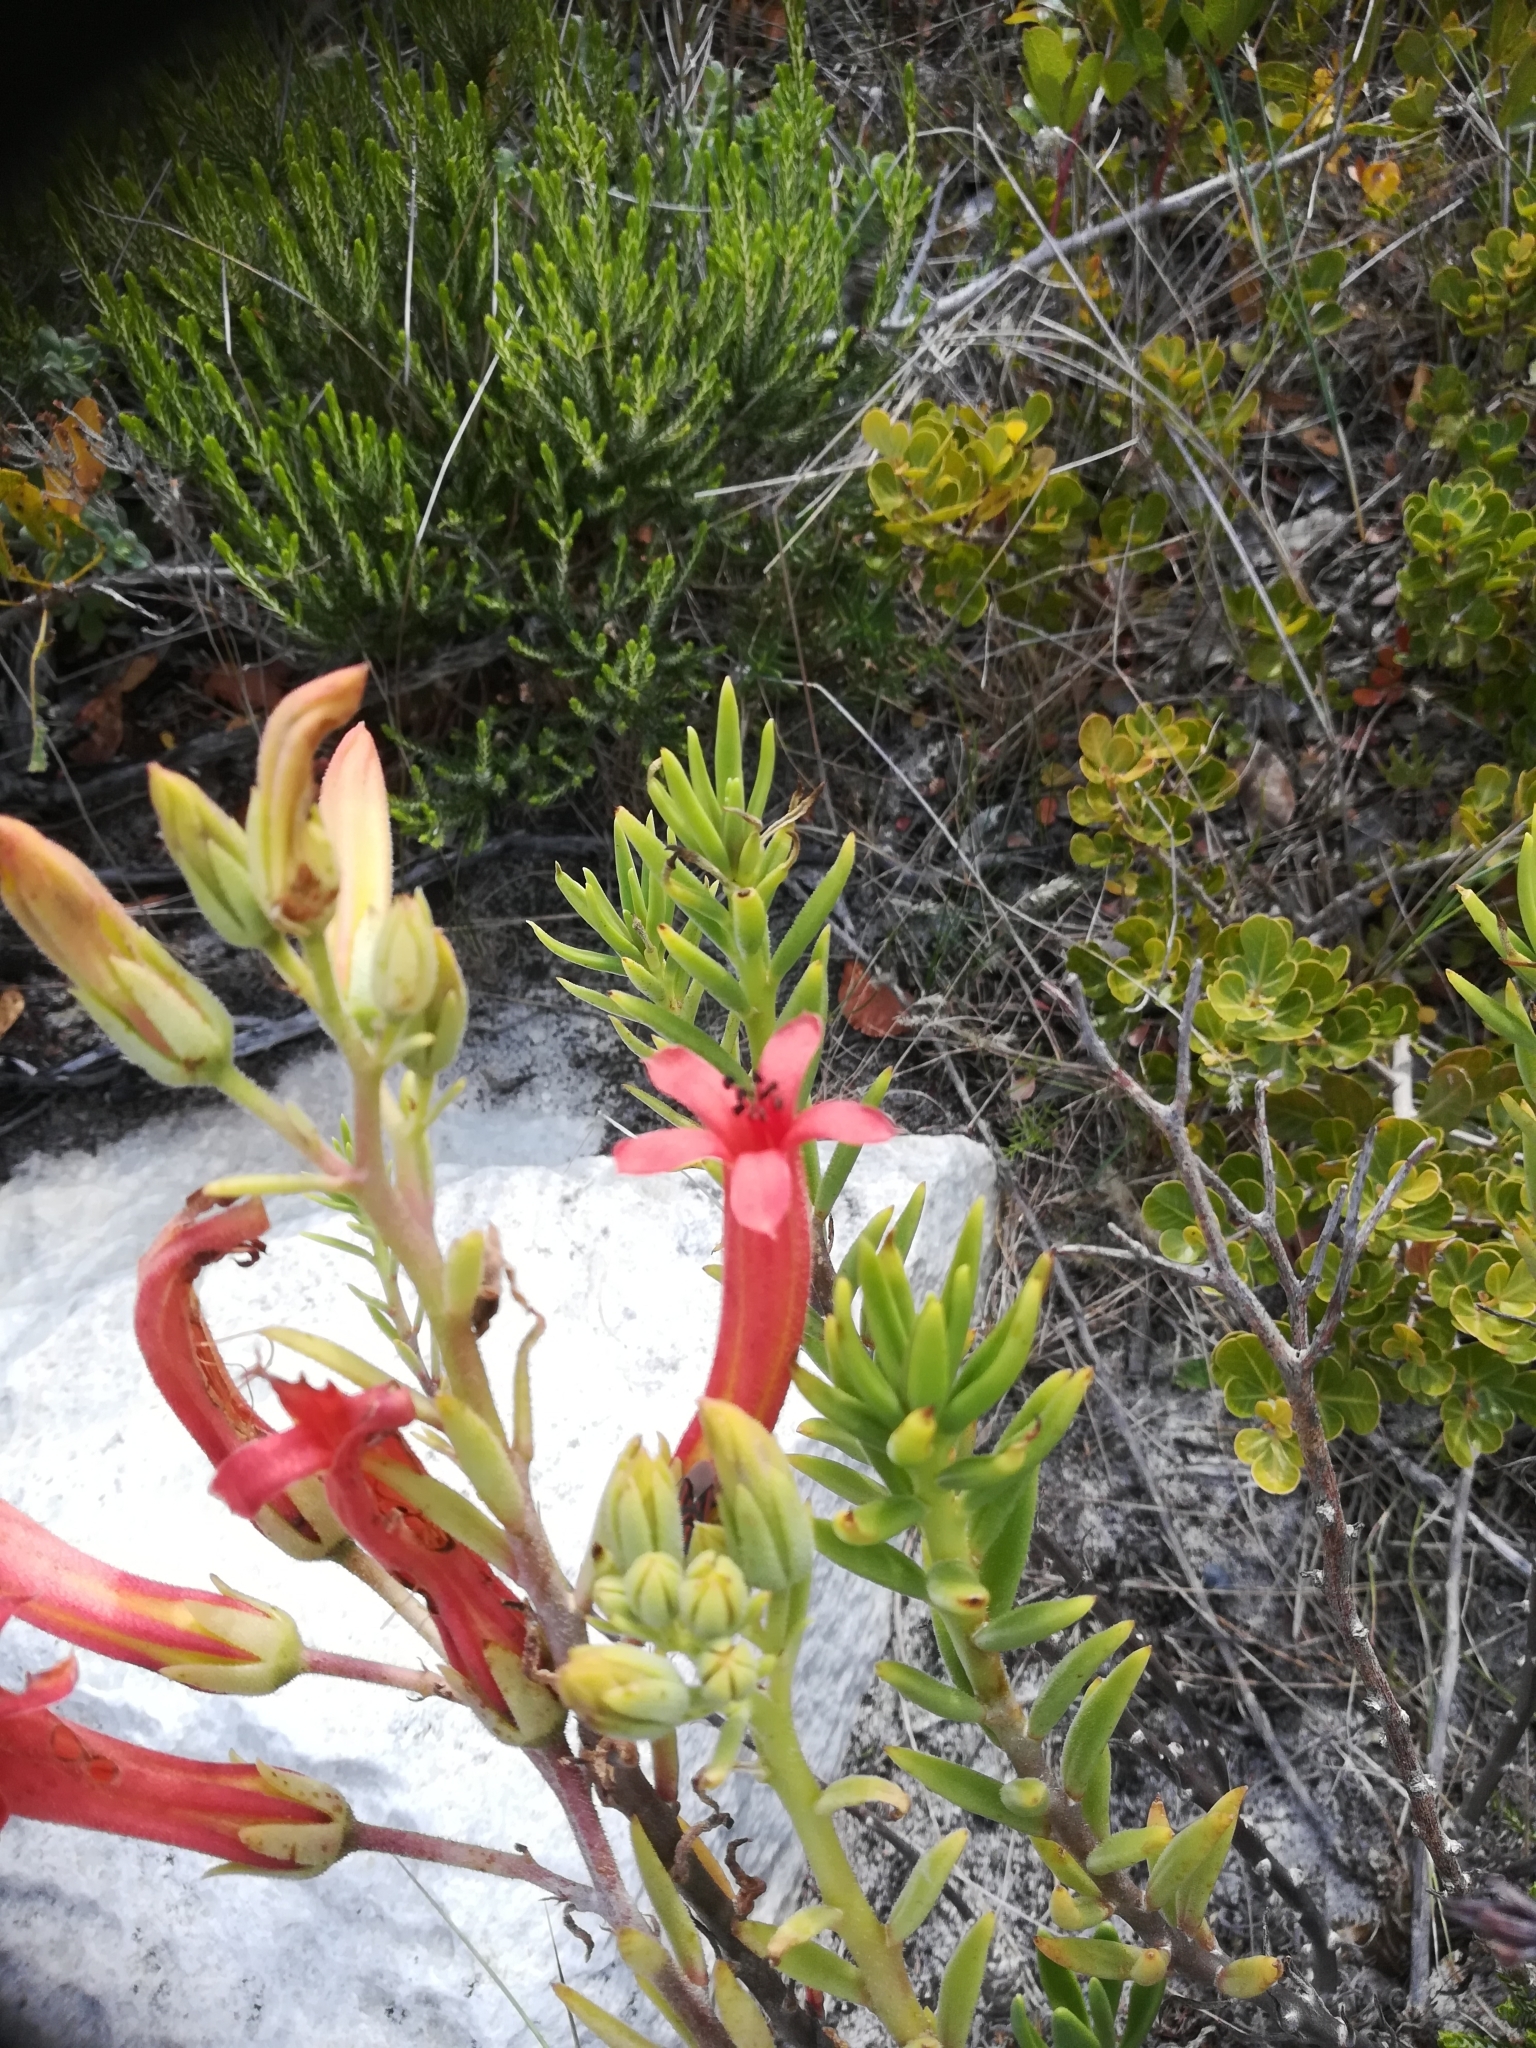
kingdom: Plantae
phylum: Tracheophyta
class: Magnoliopsida
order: Saxifragales
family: Crassulaceae
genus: Tylecodon
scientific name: Tylecodon grandiflorus
